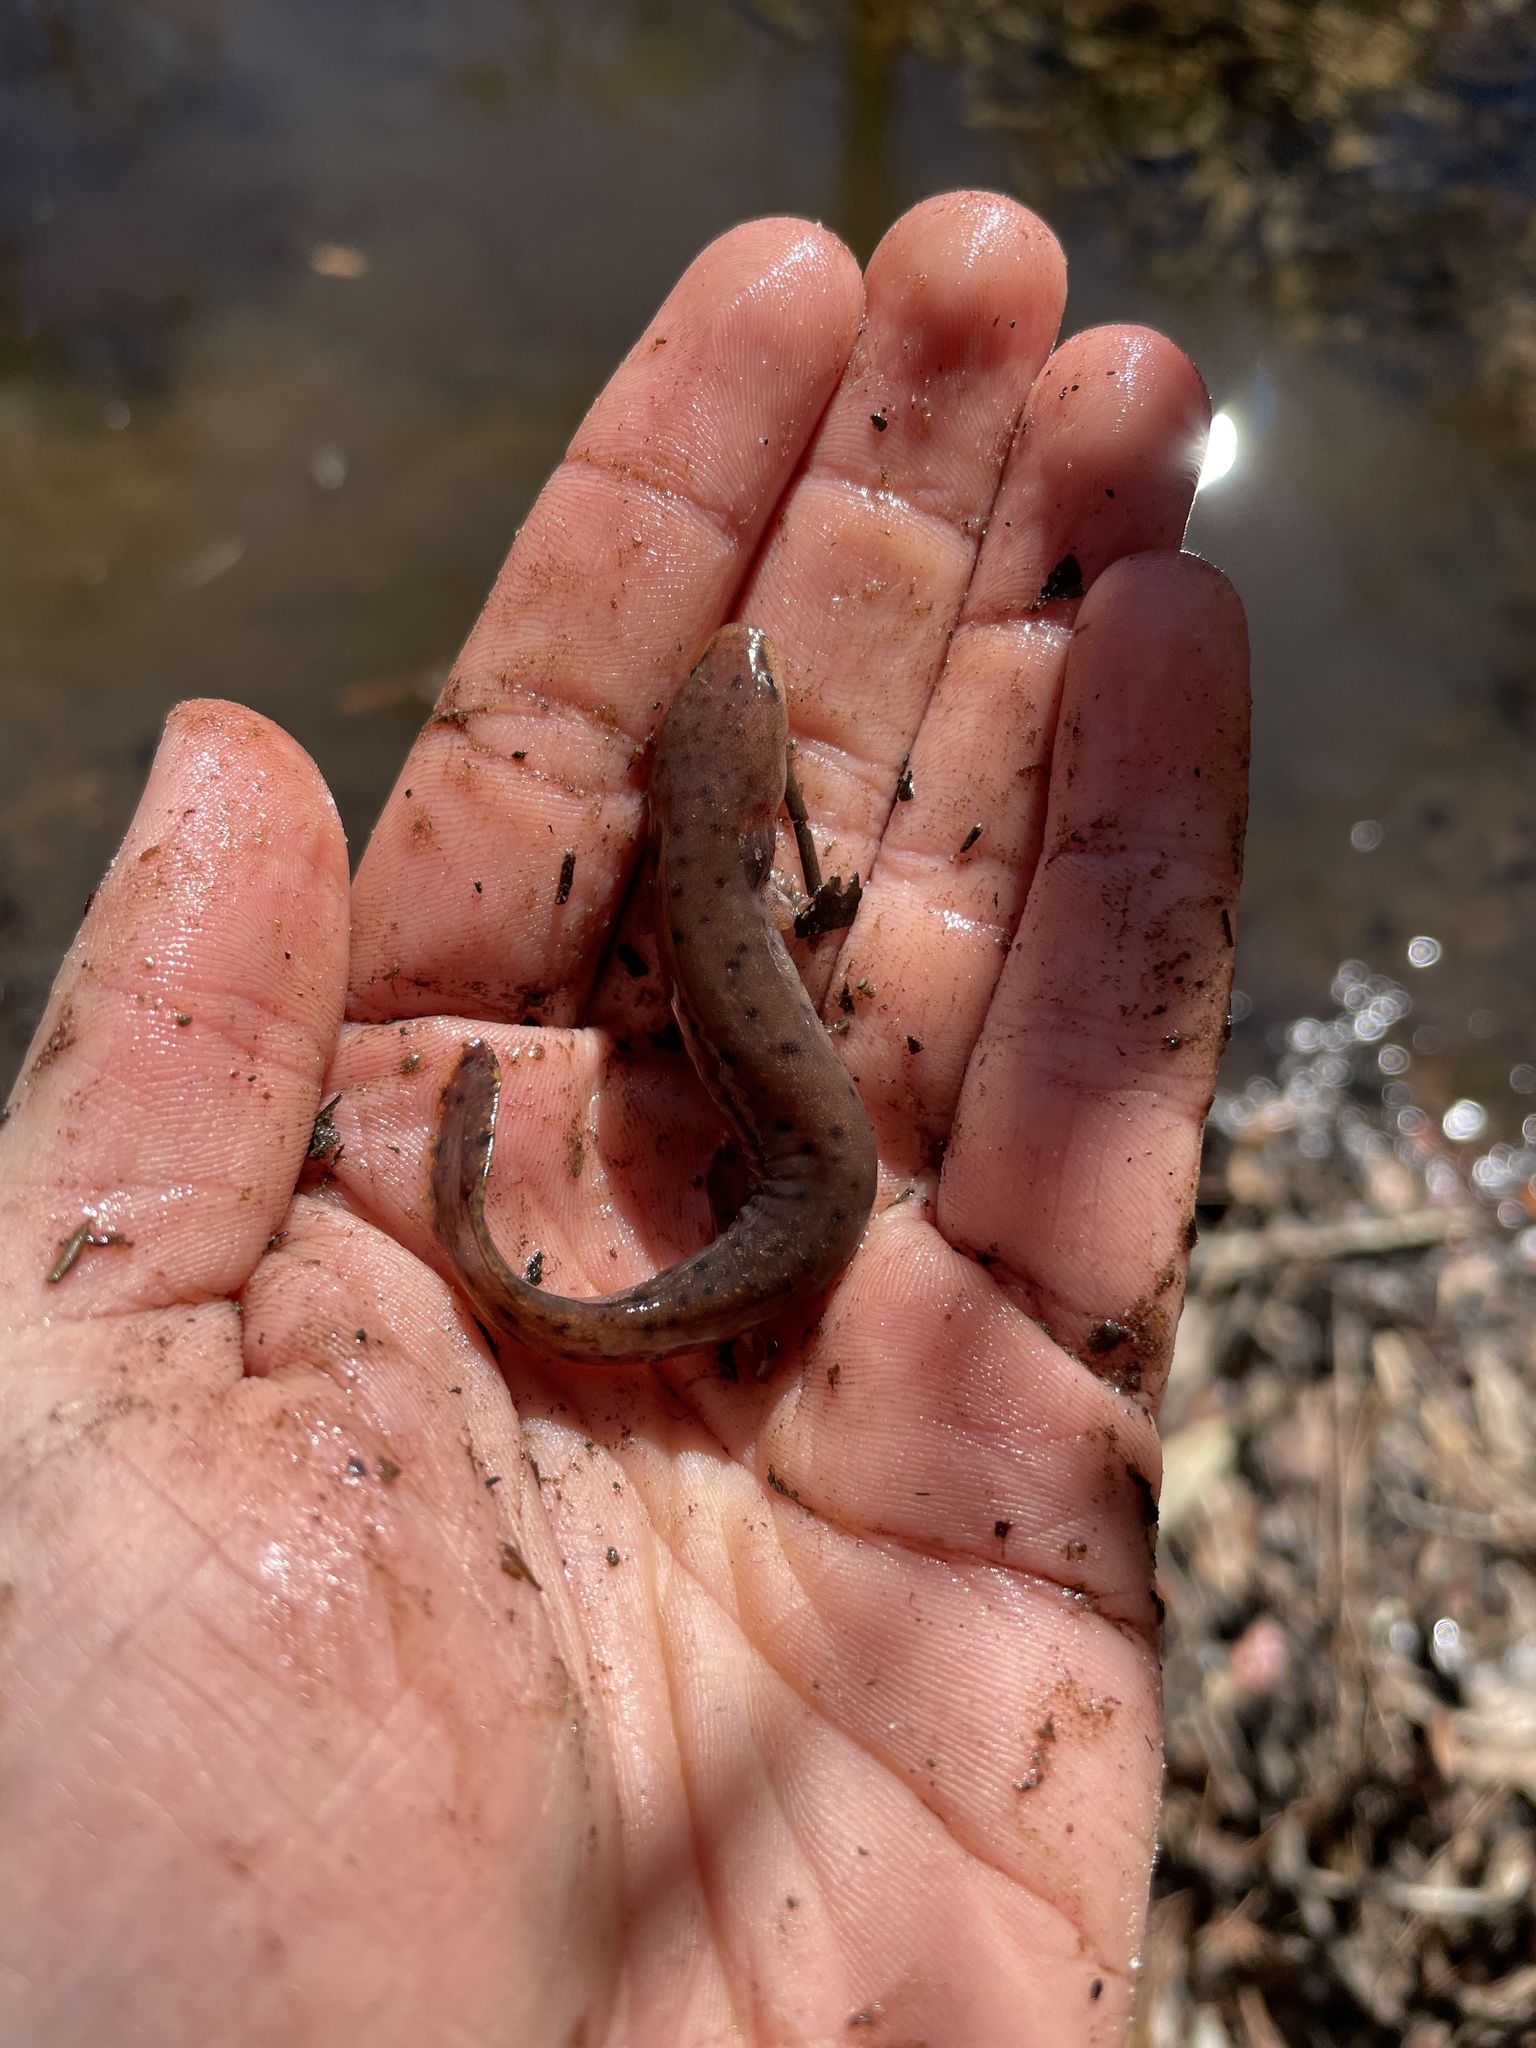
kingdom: Animalia
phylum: Chordata
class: Amphibia
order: Caudata
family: Proteidae
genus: Necturus
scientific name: Necturus mounti
